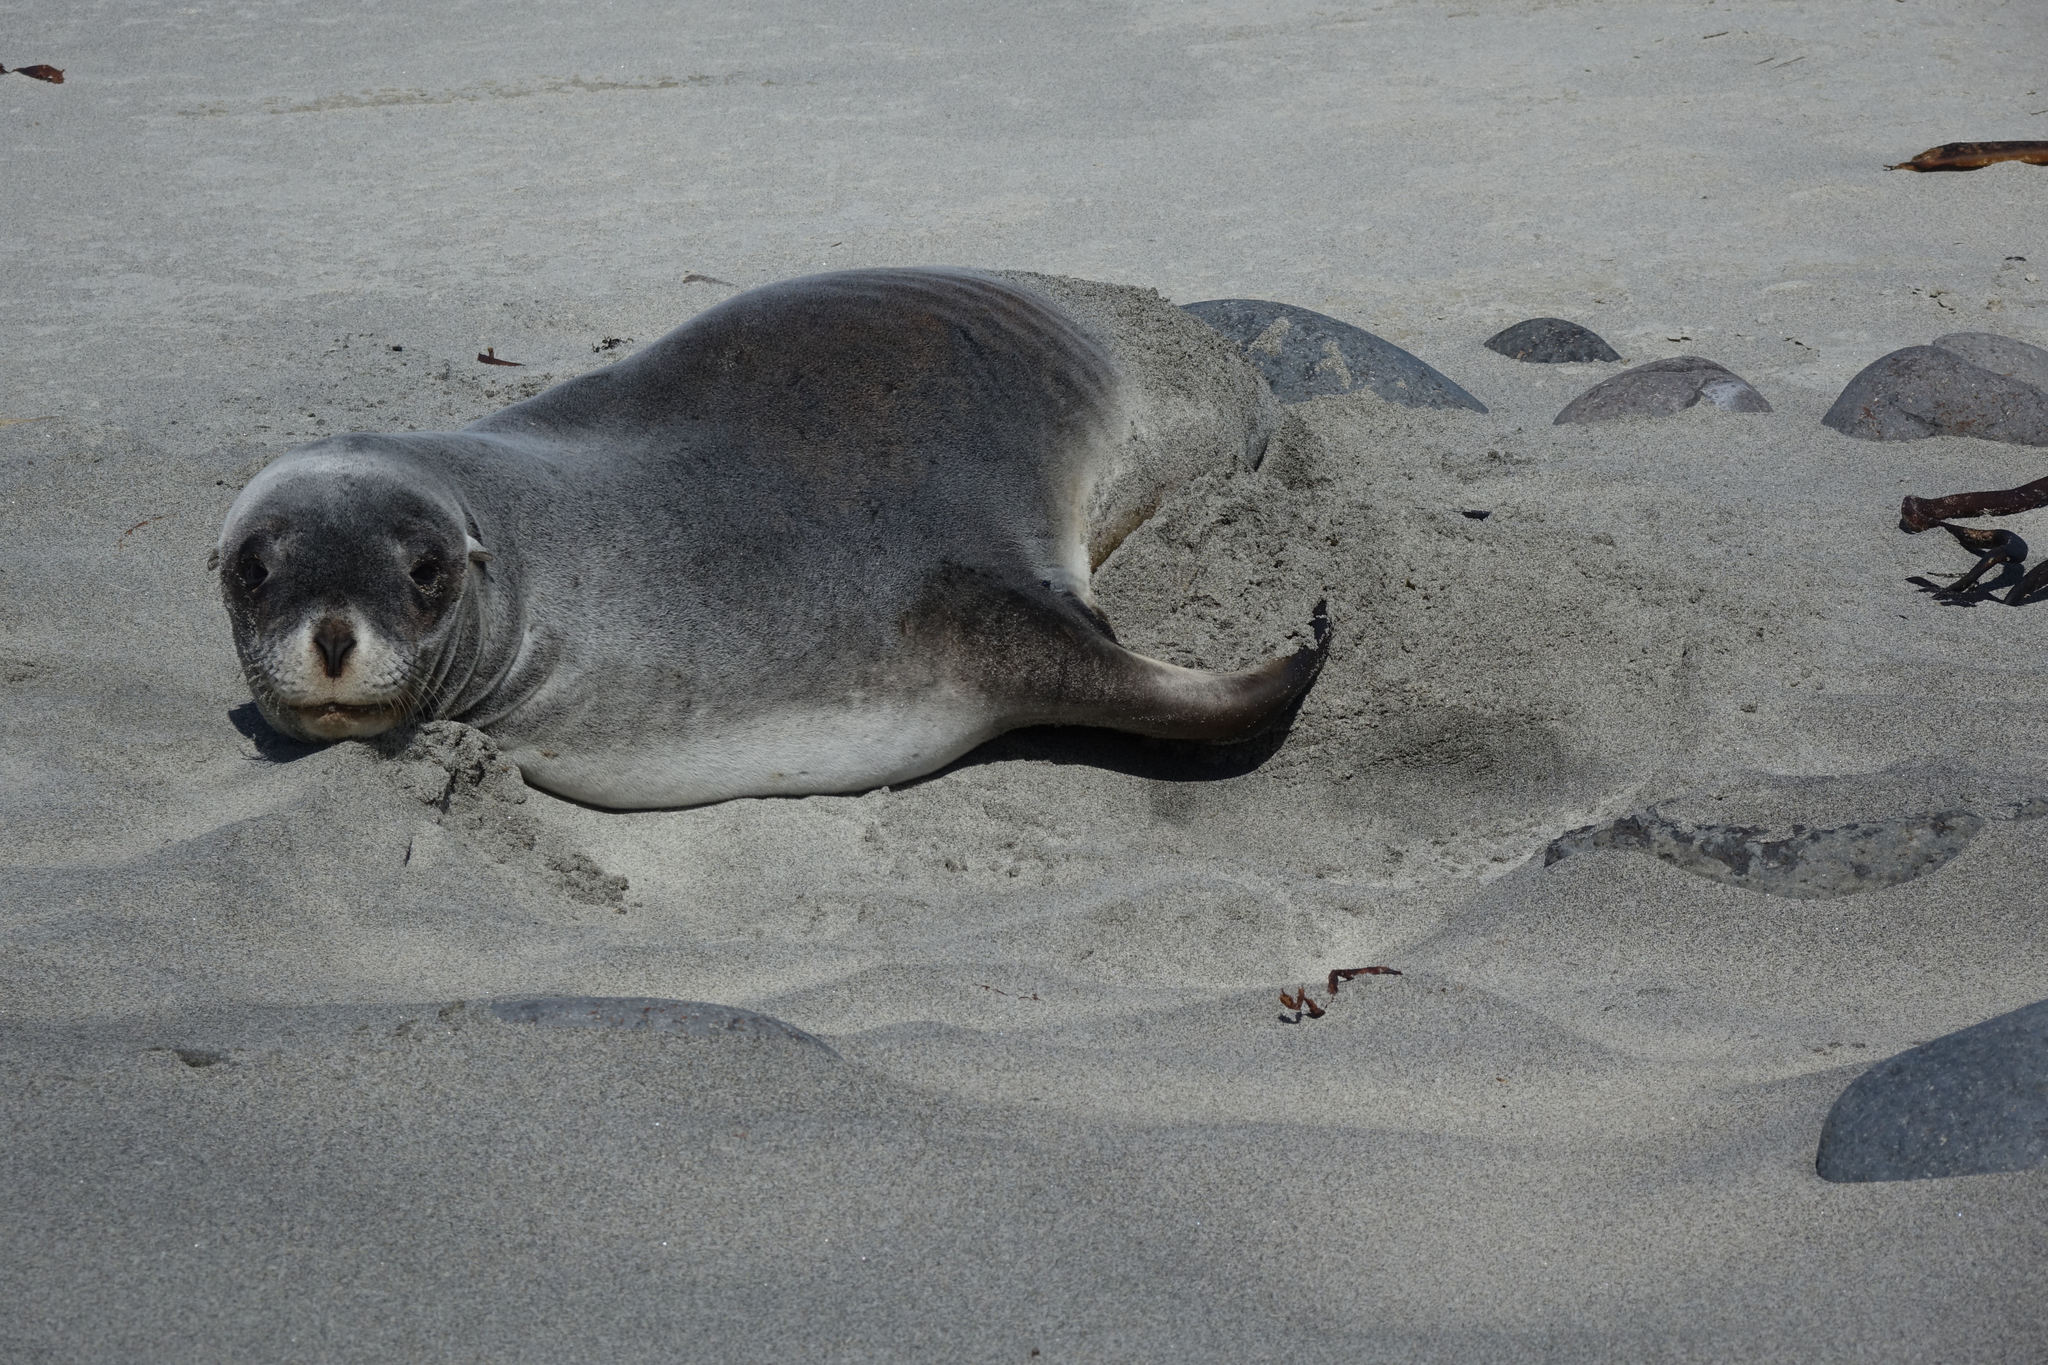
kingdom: Animalia
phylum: Chordata
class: Mammalia
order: Carnivora
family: Otariidae
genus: Phocarctos
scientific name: Phocarctos hookeri
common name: New zealand sea lion
